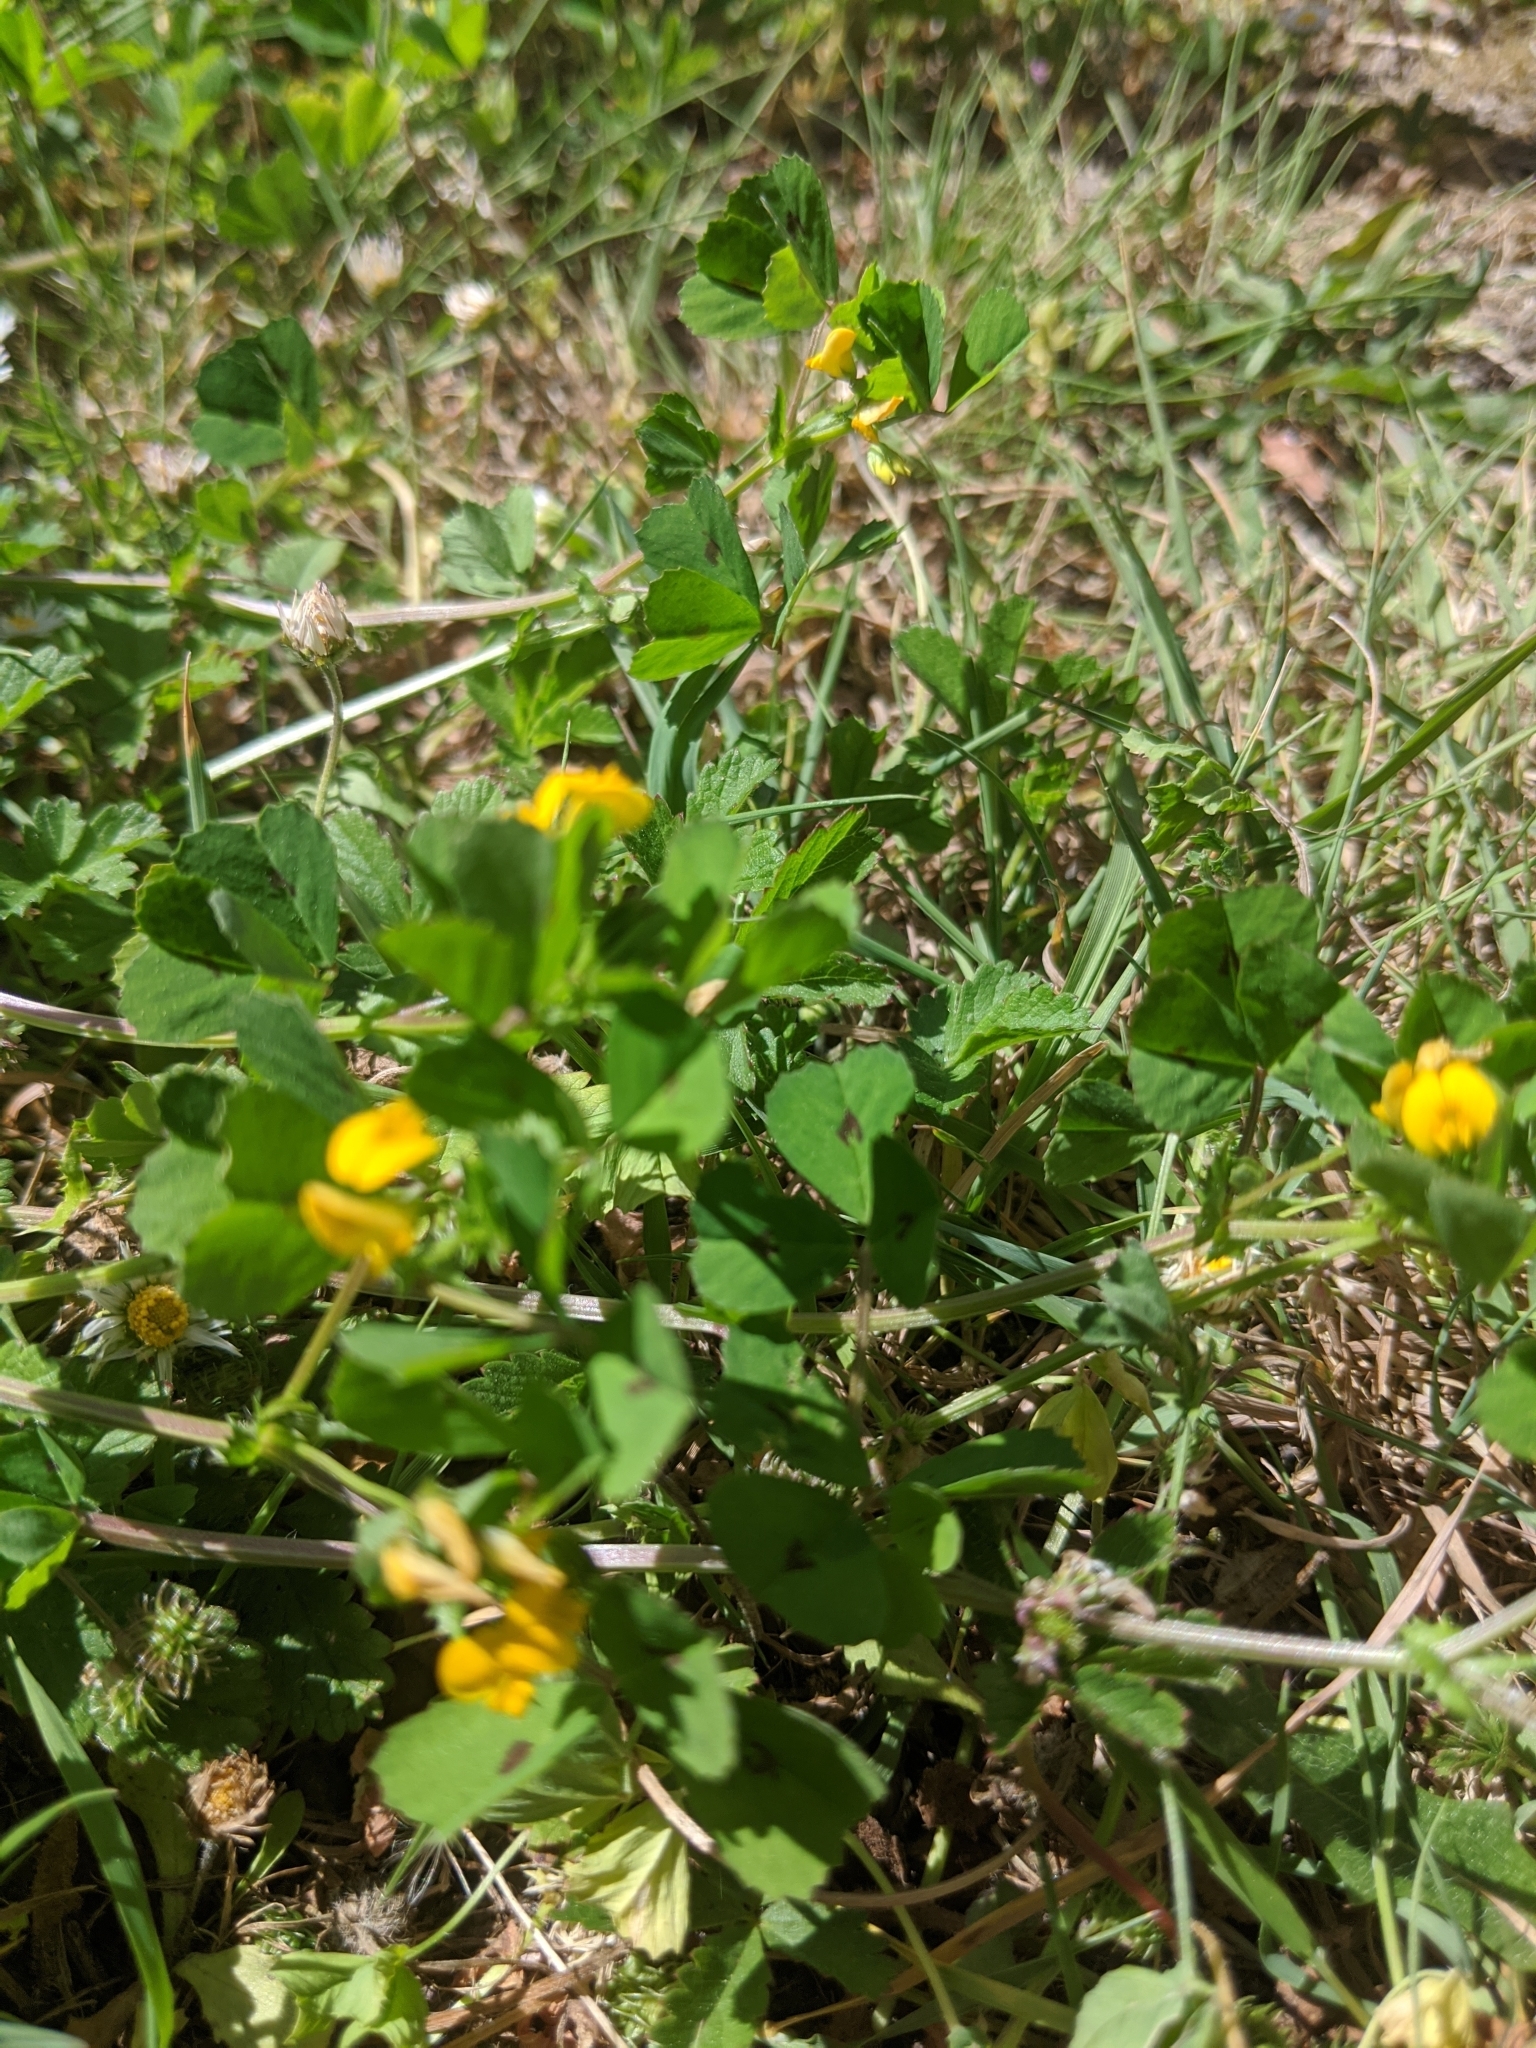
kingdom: Plantae
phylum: Tracheophyta
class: Magnoliopsida
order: Fabales
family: Fabaceae
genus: Medicago
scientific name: Medicago arabica
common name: Spotted medick
